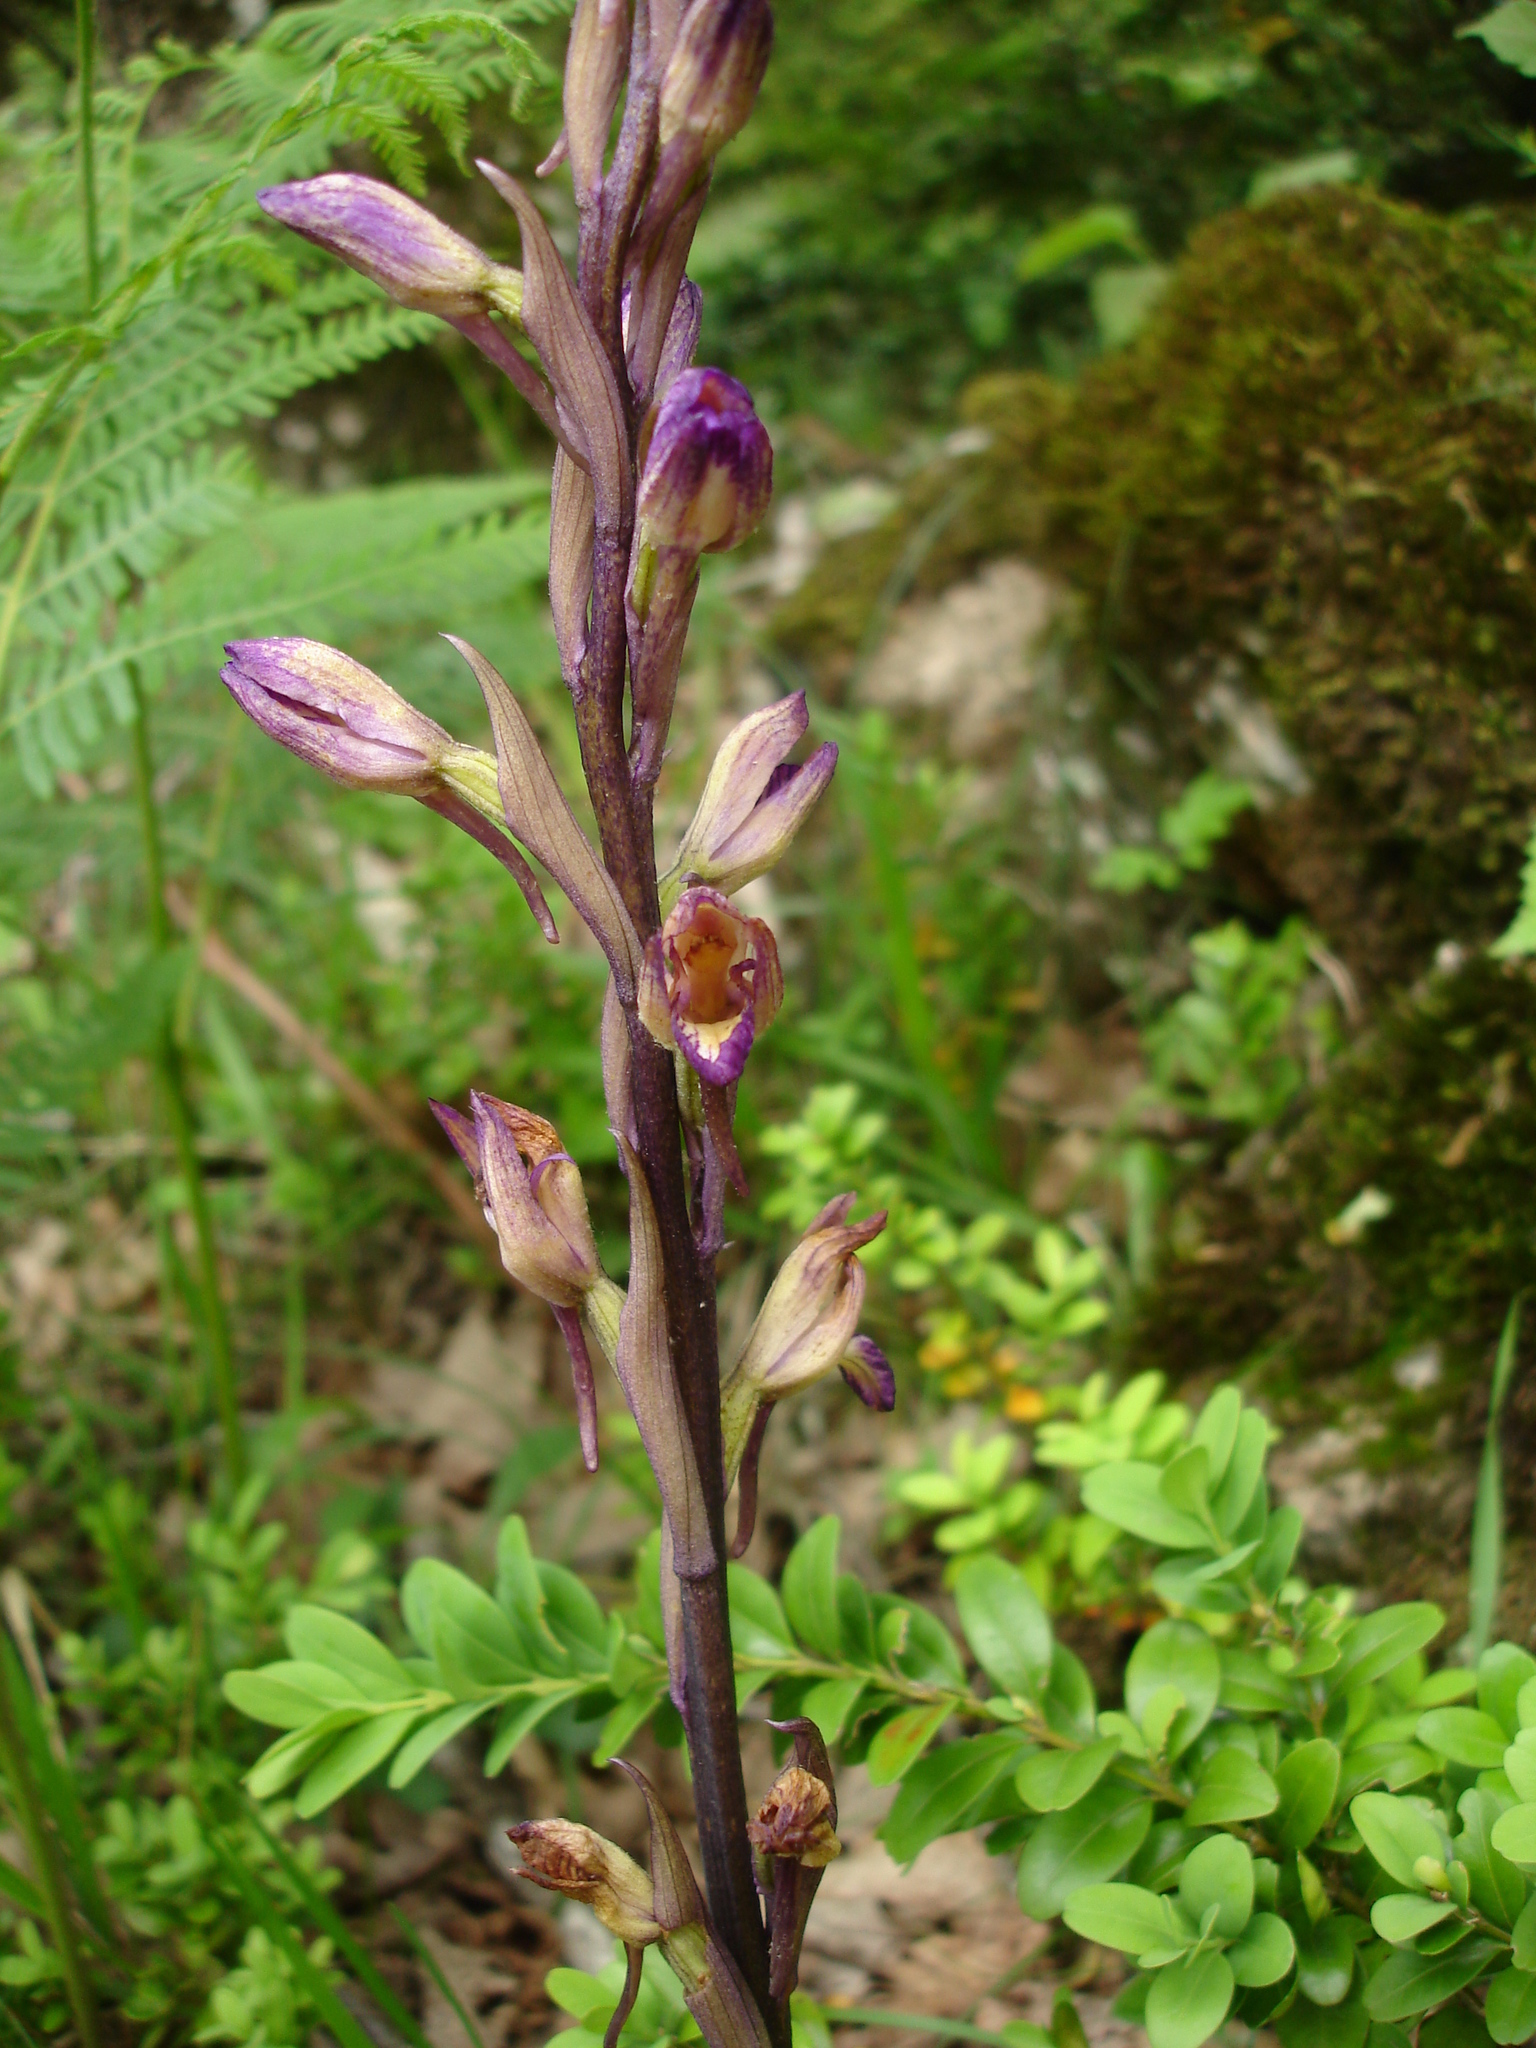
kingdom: Plantae
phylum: Tracheophyta
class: Liliopsida
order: Asparagales
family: Orchidaceae
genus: Limodorum
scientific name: Limodorum abortivum
